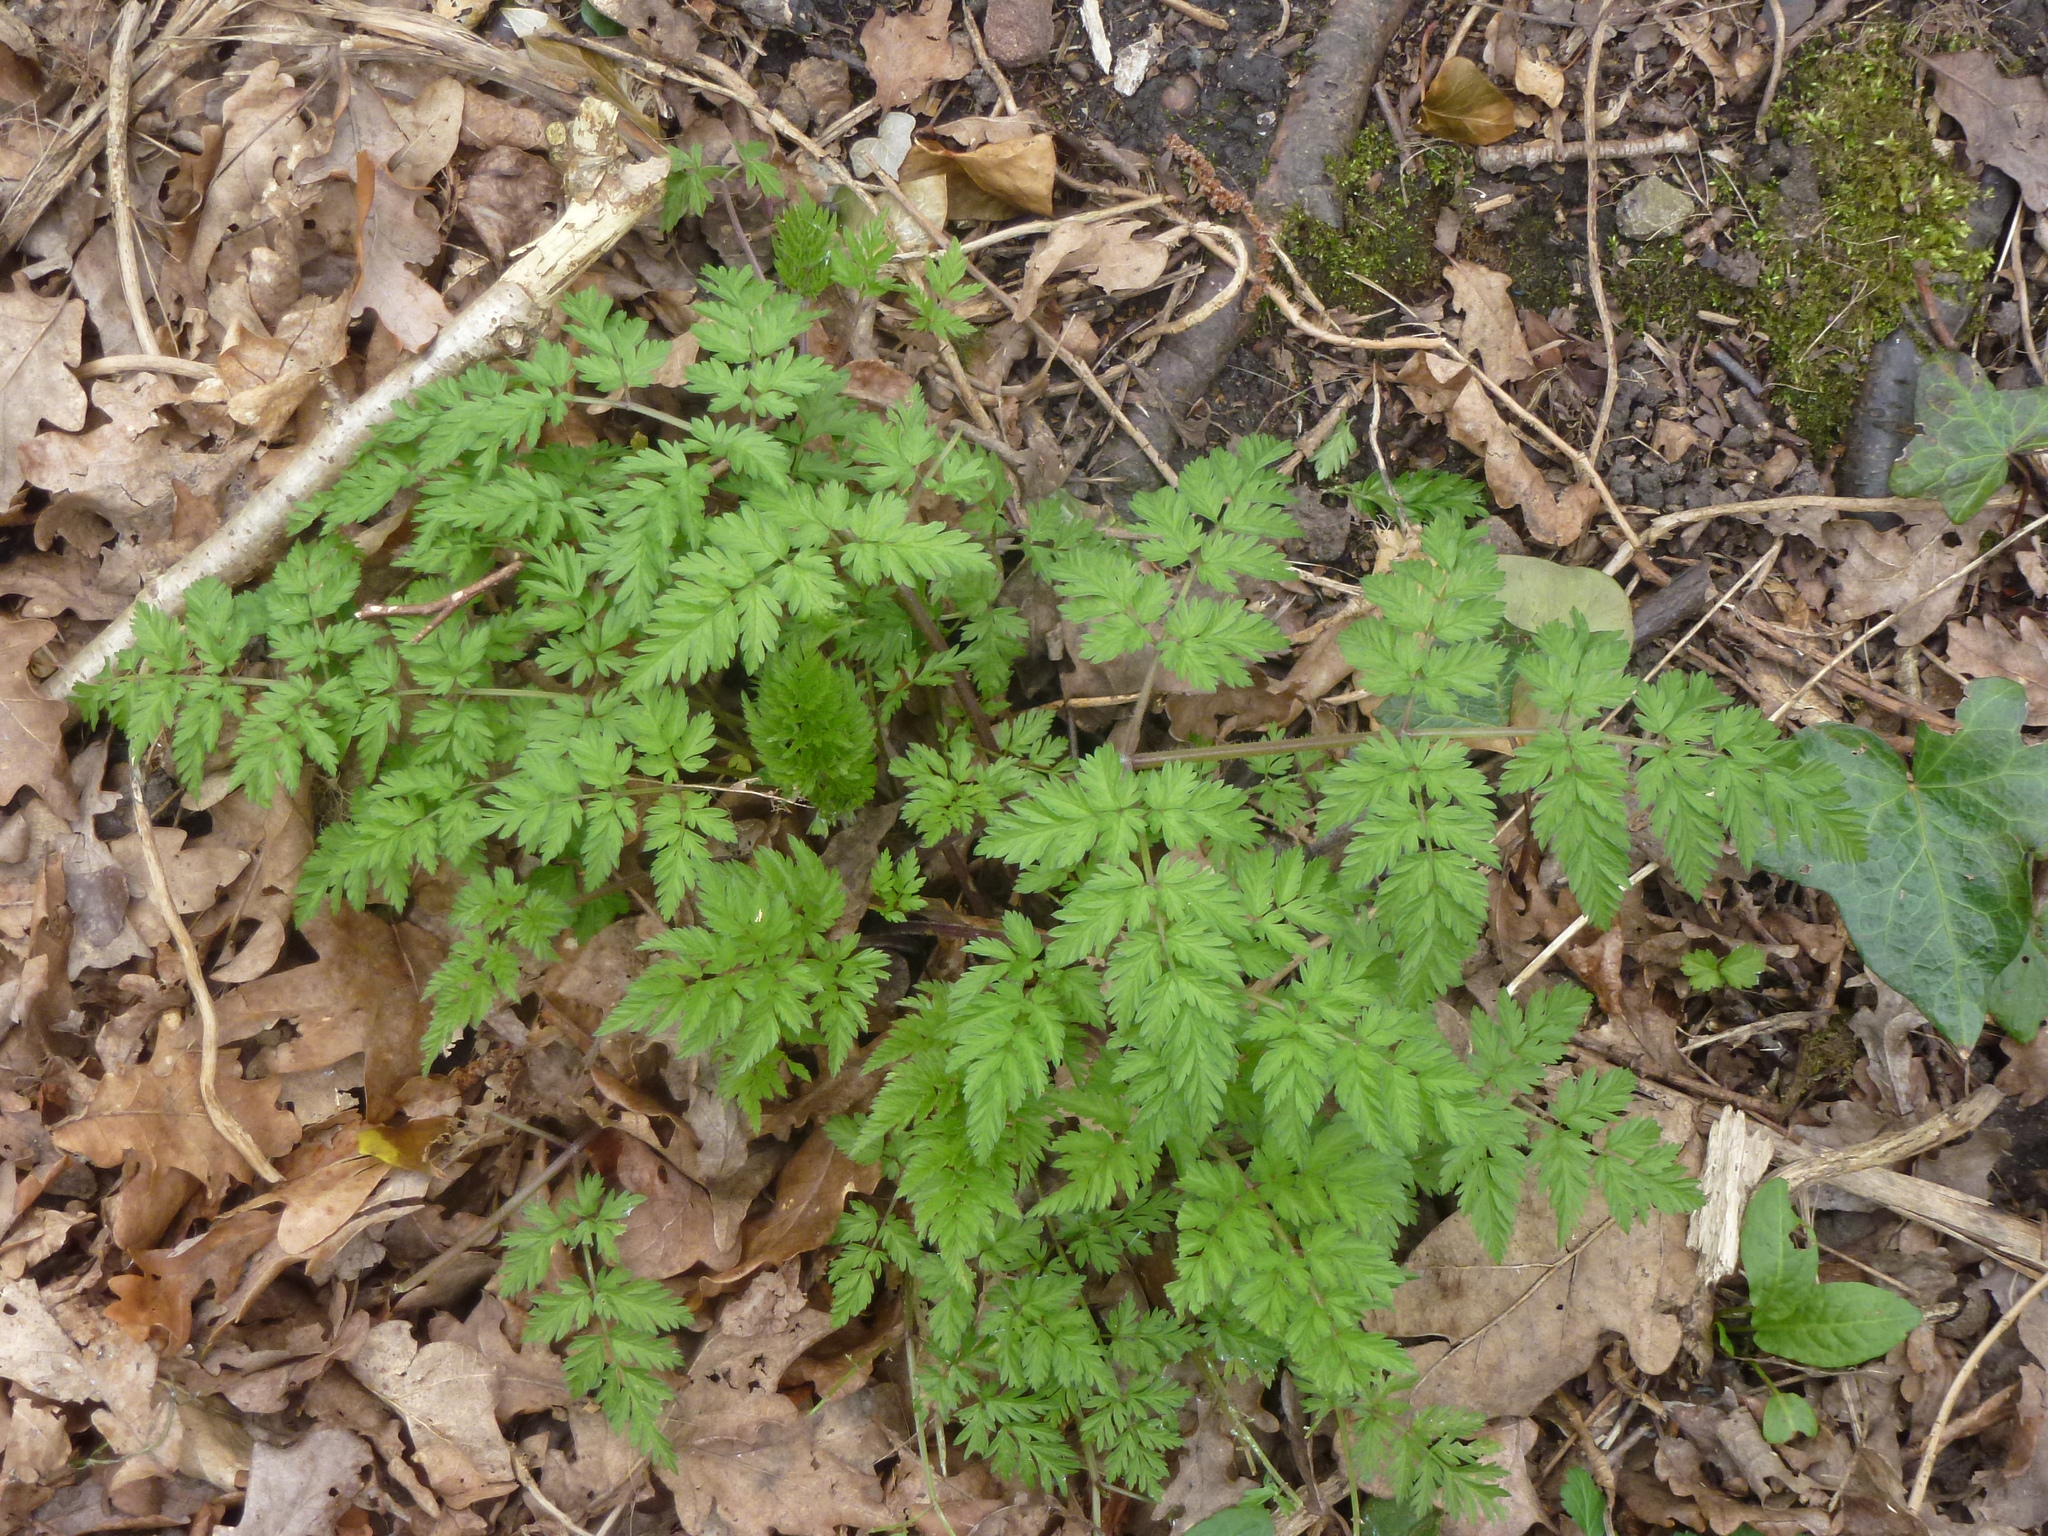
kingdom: Plantae
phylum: Tracheophyta
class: Magnoliopsida
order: Apiales
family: Apiaceae
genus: Anthriscus
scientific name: Anthriscus sylvestris
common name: Cow parsley
